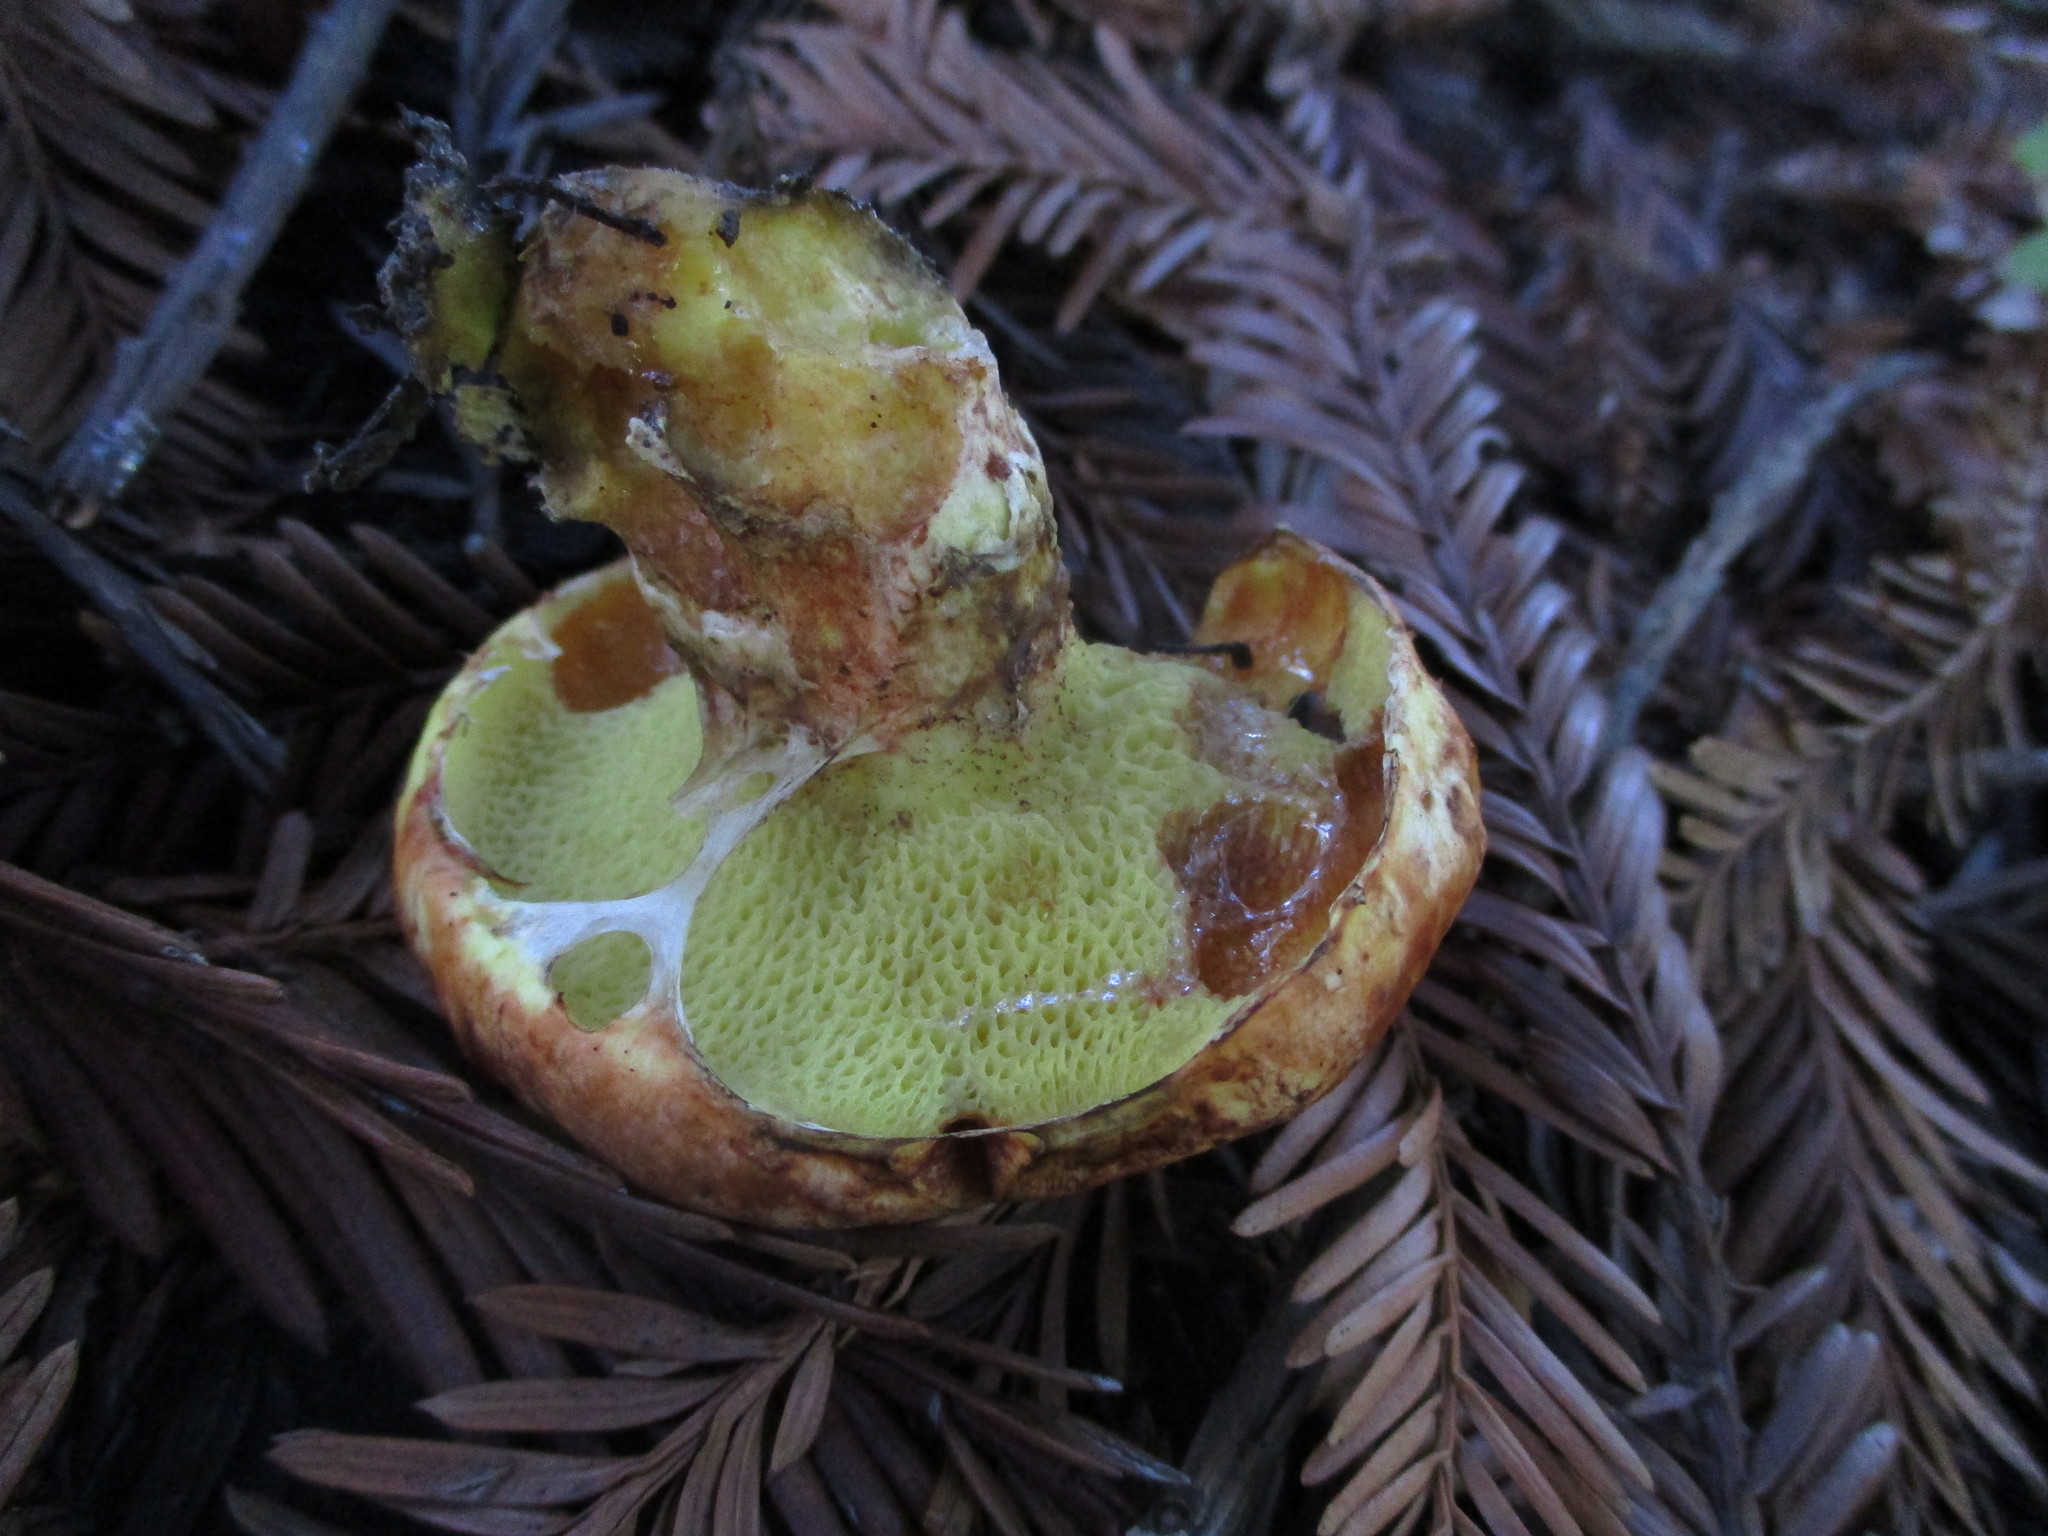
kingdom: Fungi
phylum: Basidiomycota
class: Agaricomycetes
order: Boletales
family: Suillaceae
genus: Suillus
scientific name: Suillus caerulescens
